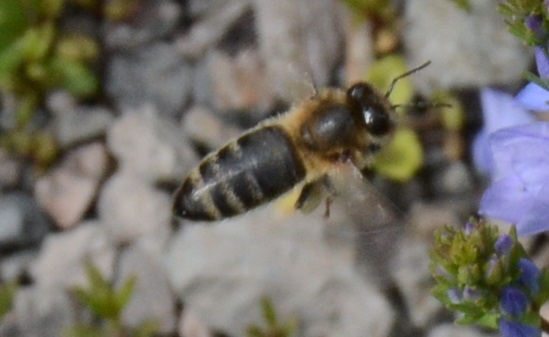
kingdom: Animalia
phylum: Arthropoda
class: Insecta
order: Hymenoptera
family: Apidae
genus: Apis
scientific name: Apis mellifera
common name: Honey bee
